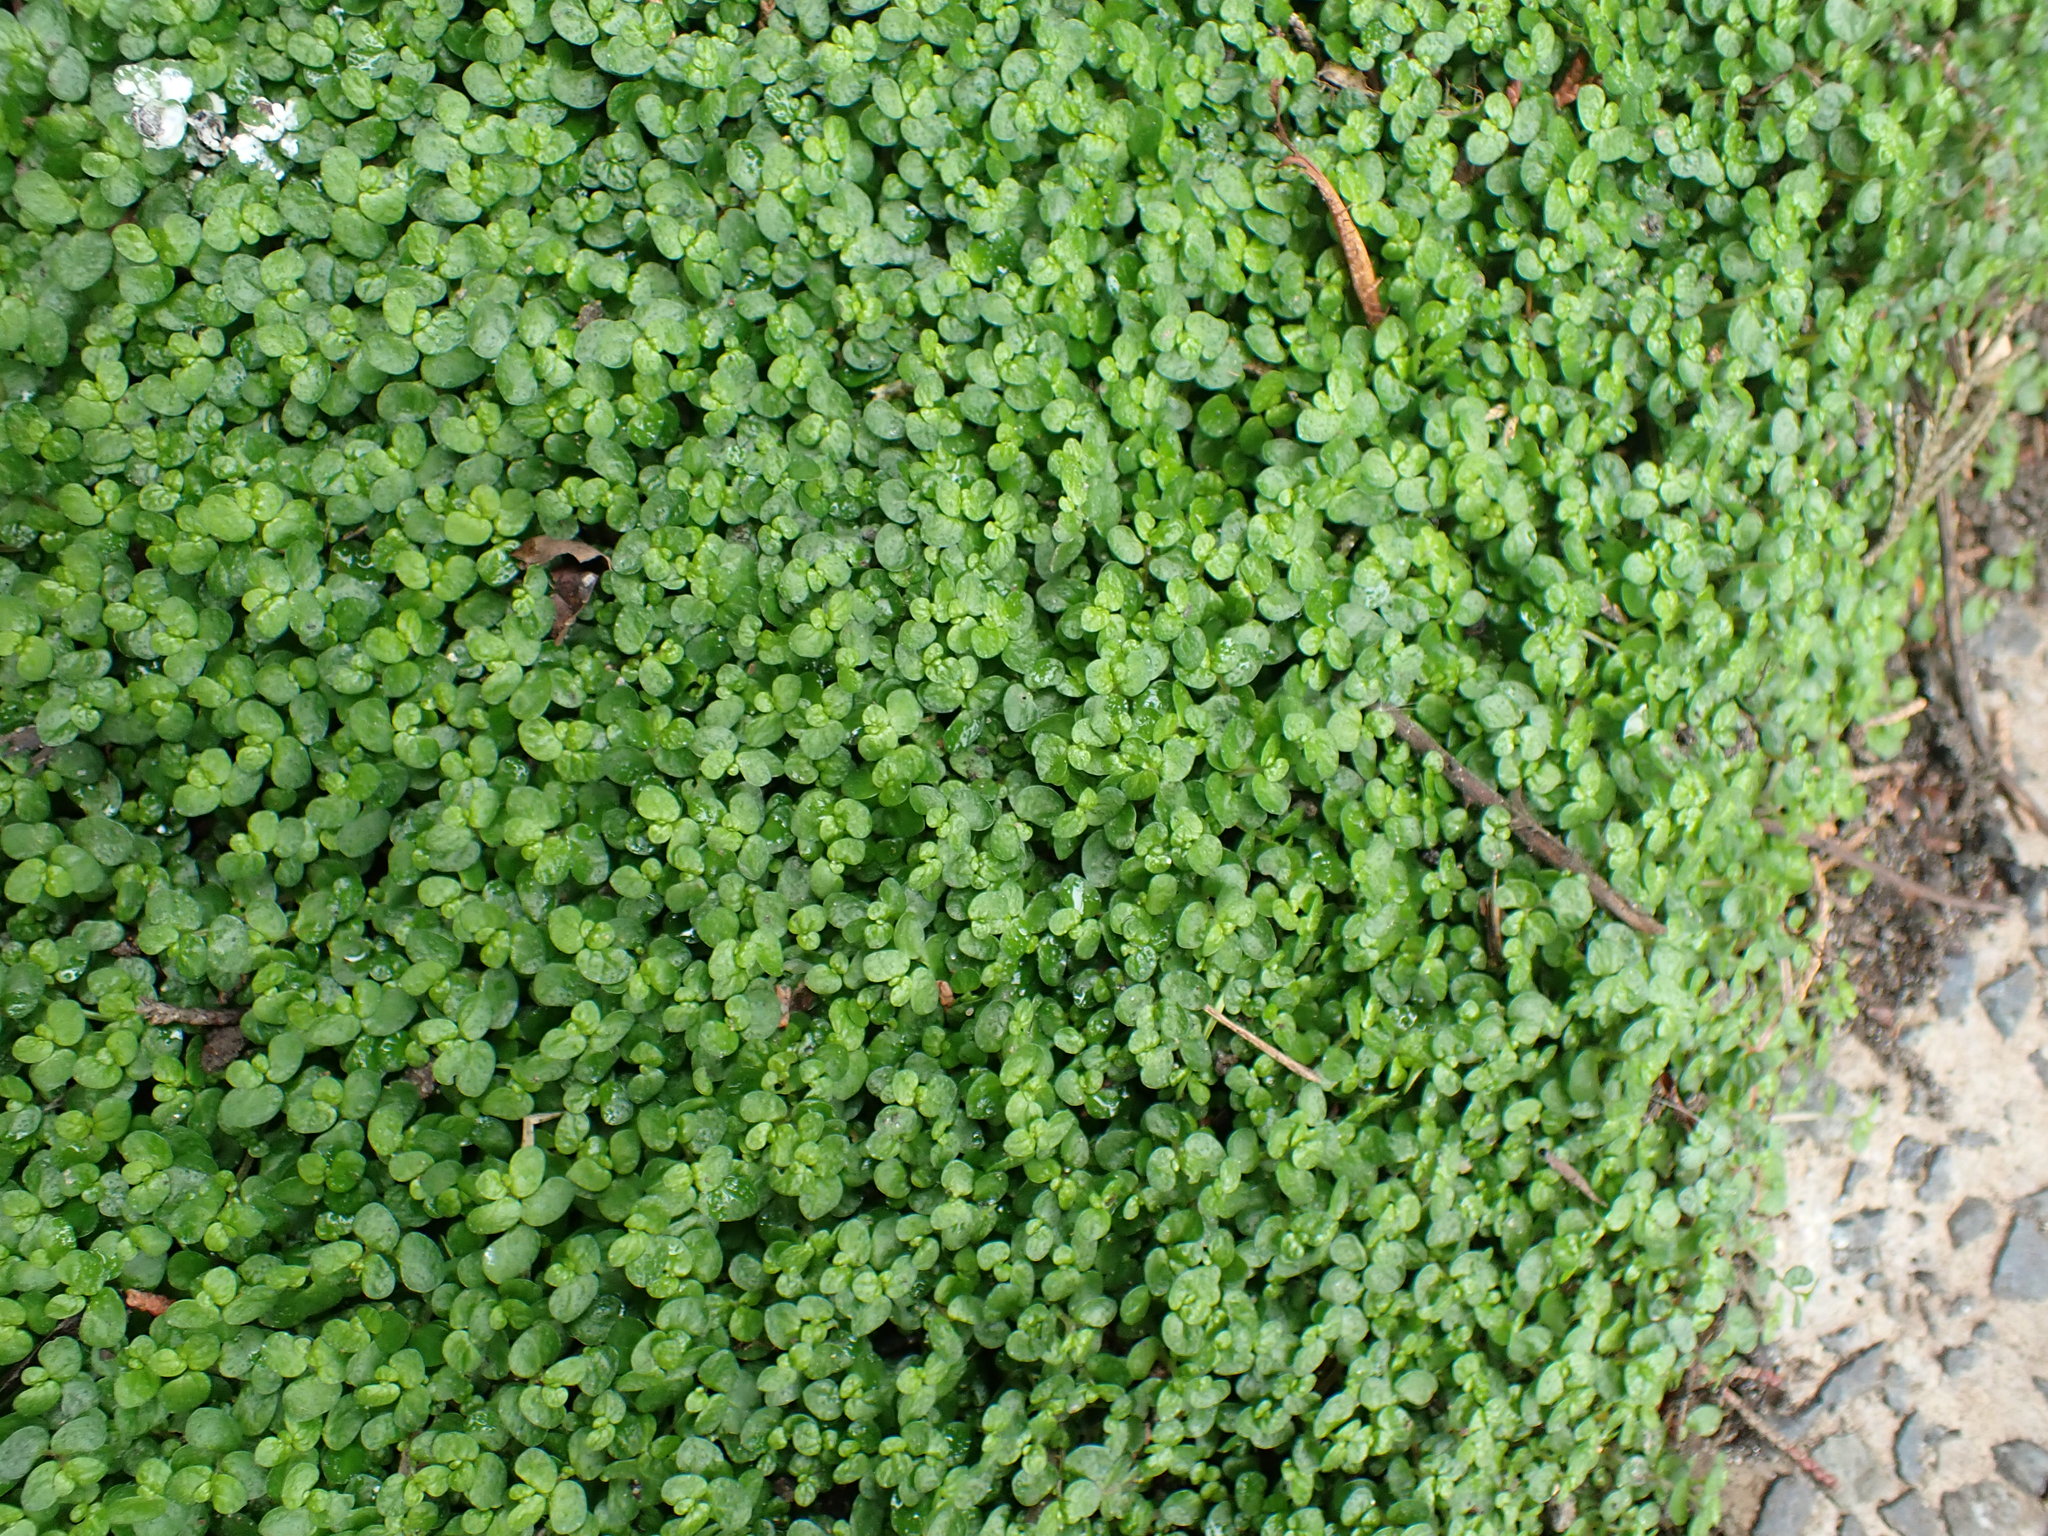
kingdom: Plantae
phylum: Tracheophyta
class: Magnoliopsida
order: Rosales
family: Urticaceae
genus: Soleirolia
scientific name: Soleirolia soleirolii
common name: Mind-your-own-business
